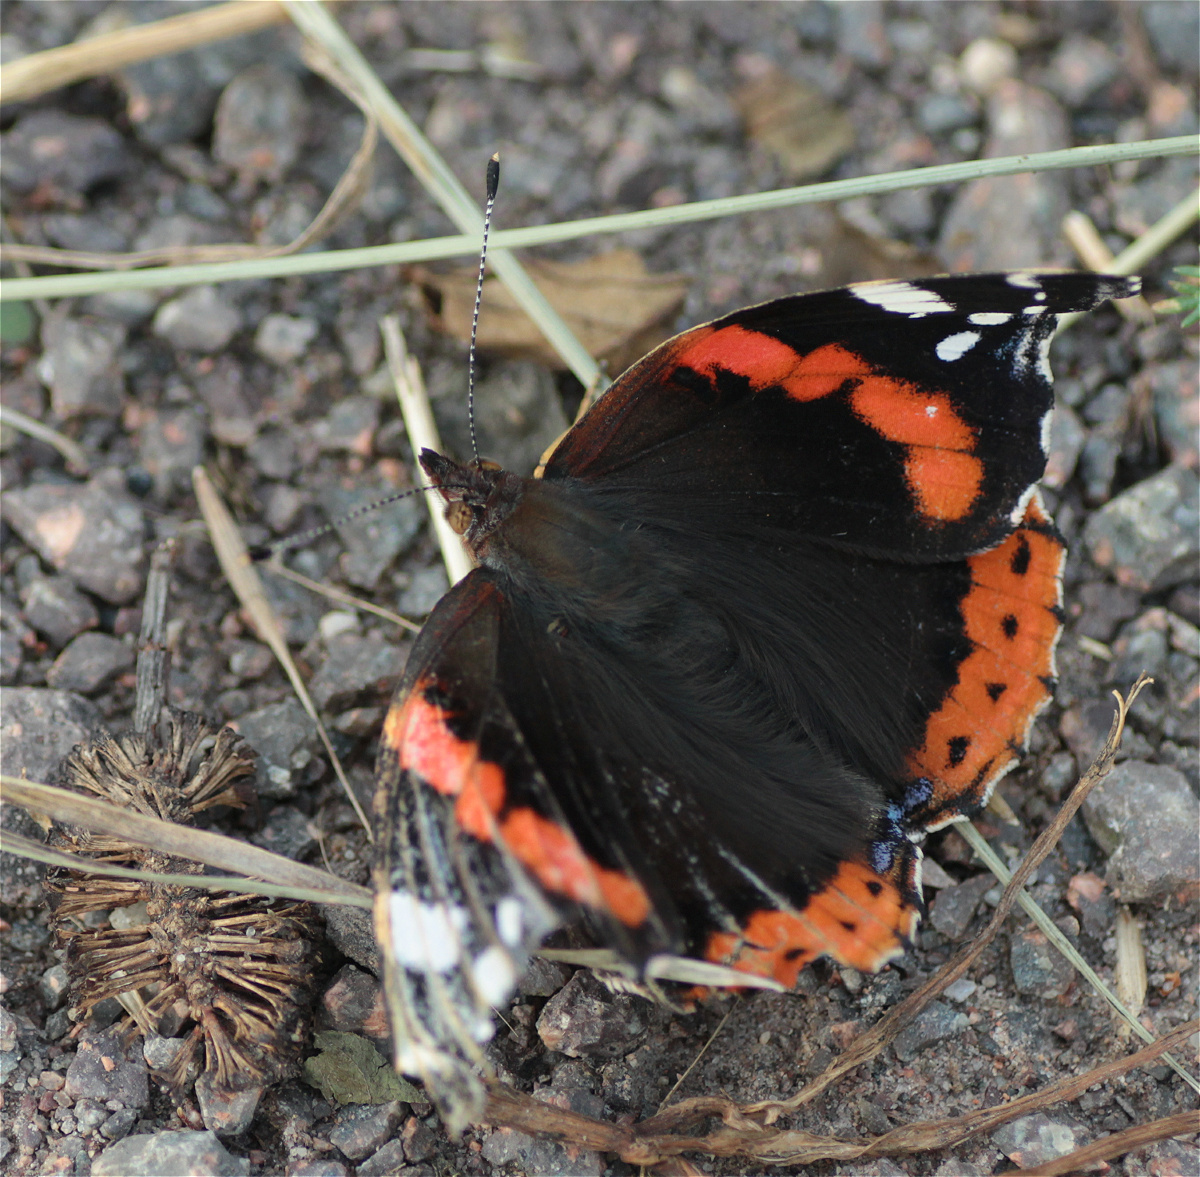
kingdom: Animalia
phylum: Arthropoda
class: Insecta
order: Lepidoptera
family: Nymphalidae
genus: Vanessa
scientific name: Vanessa atalanta
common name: Red admiral
